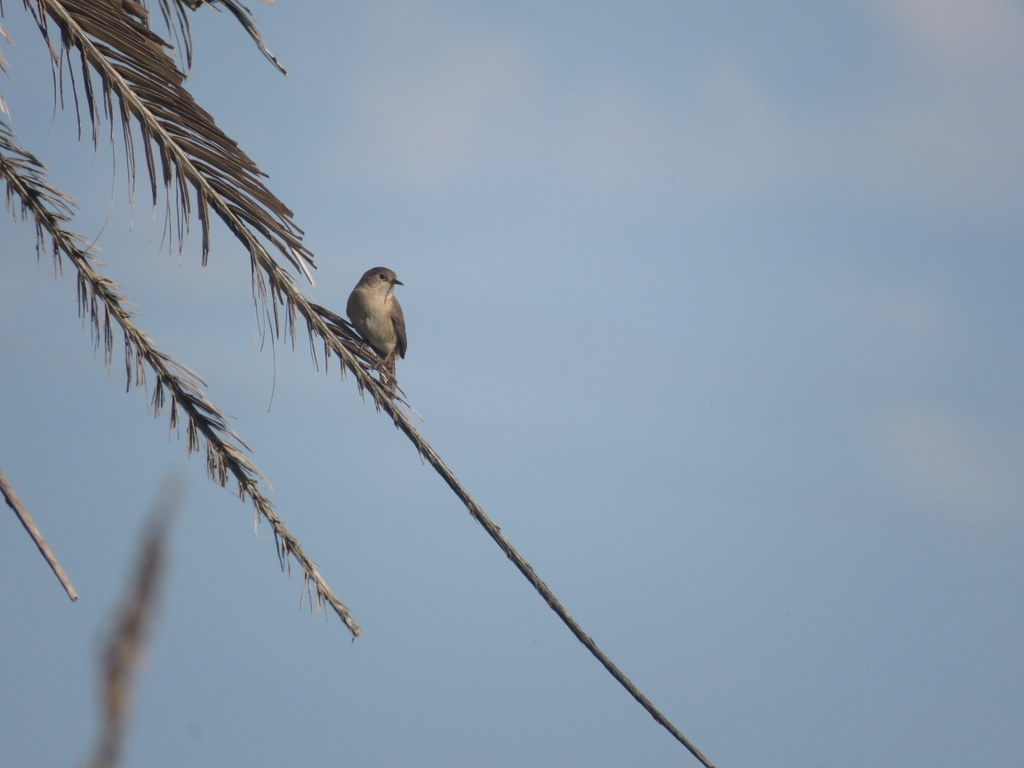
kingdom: Animalia
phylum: Chordata
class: Aves
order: Passeriformes
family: Troglodytidae
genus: Troglodytes
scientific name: Troglodytes aedon
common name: House wren
